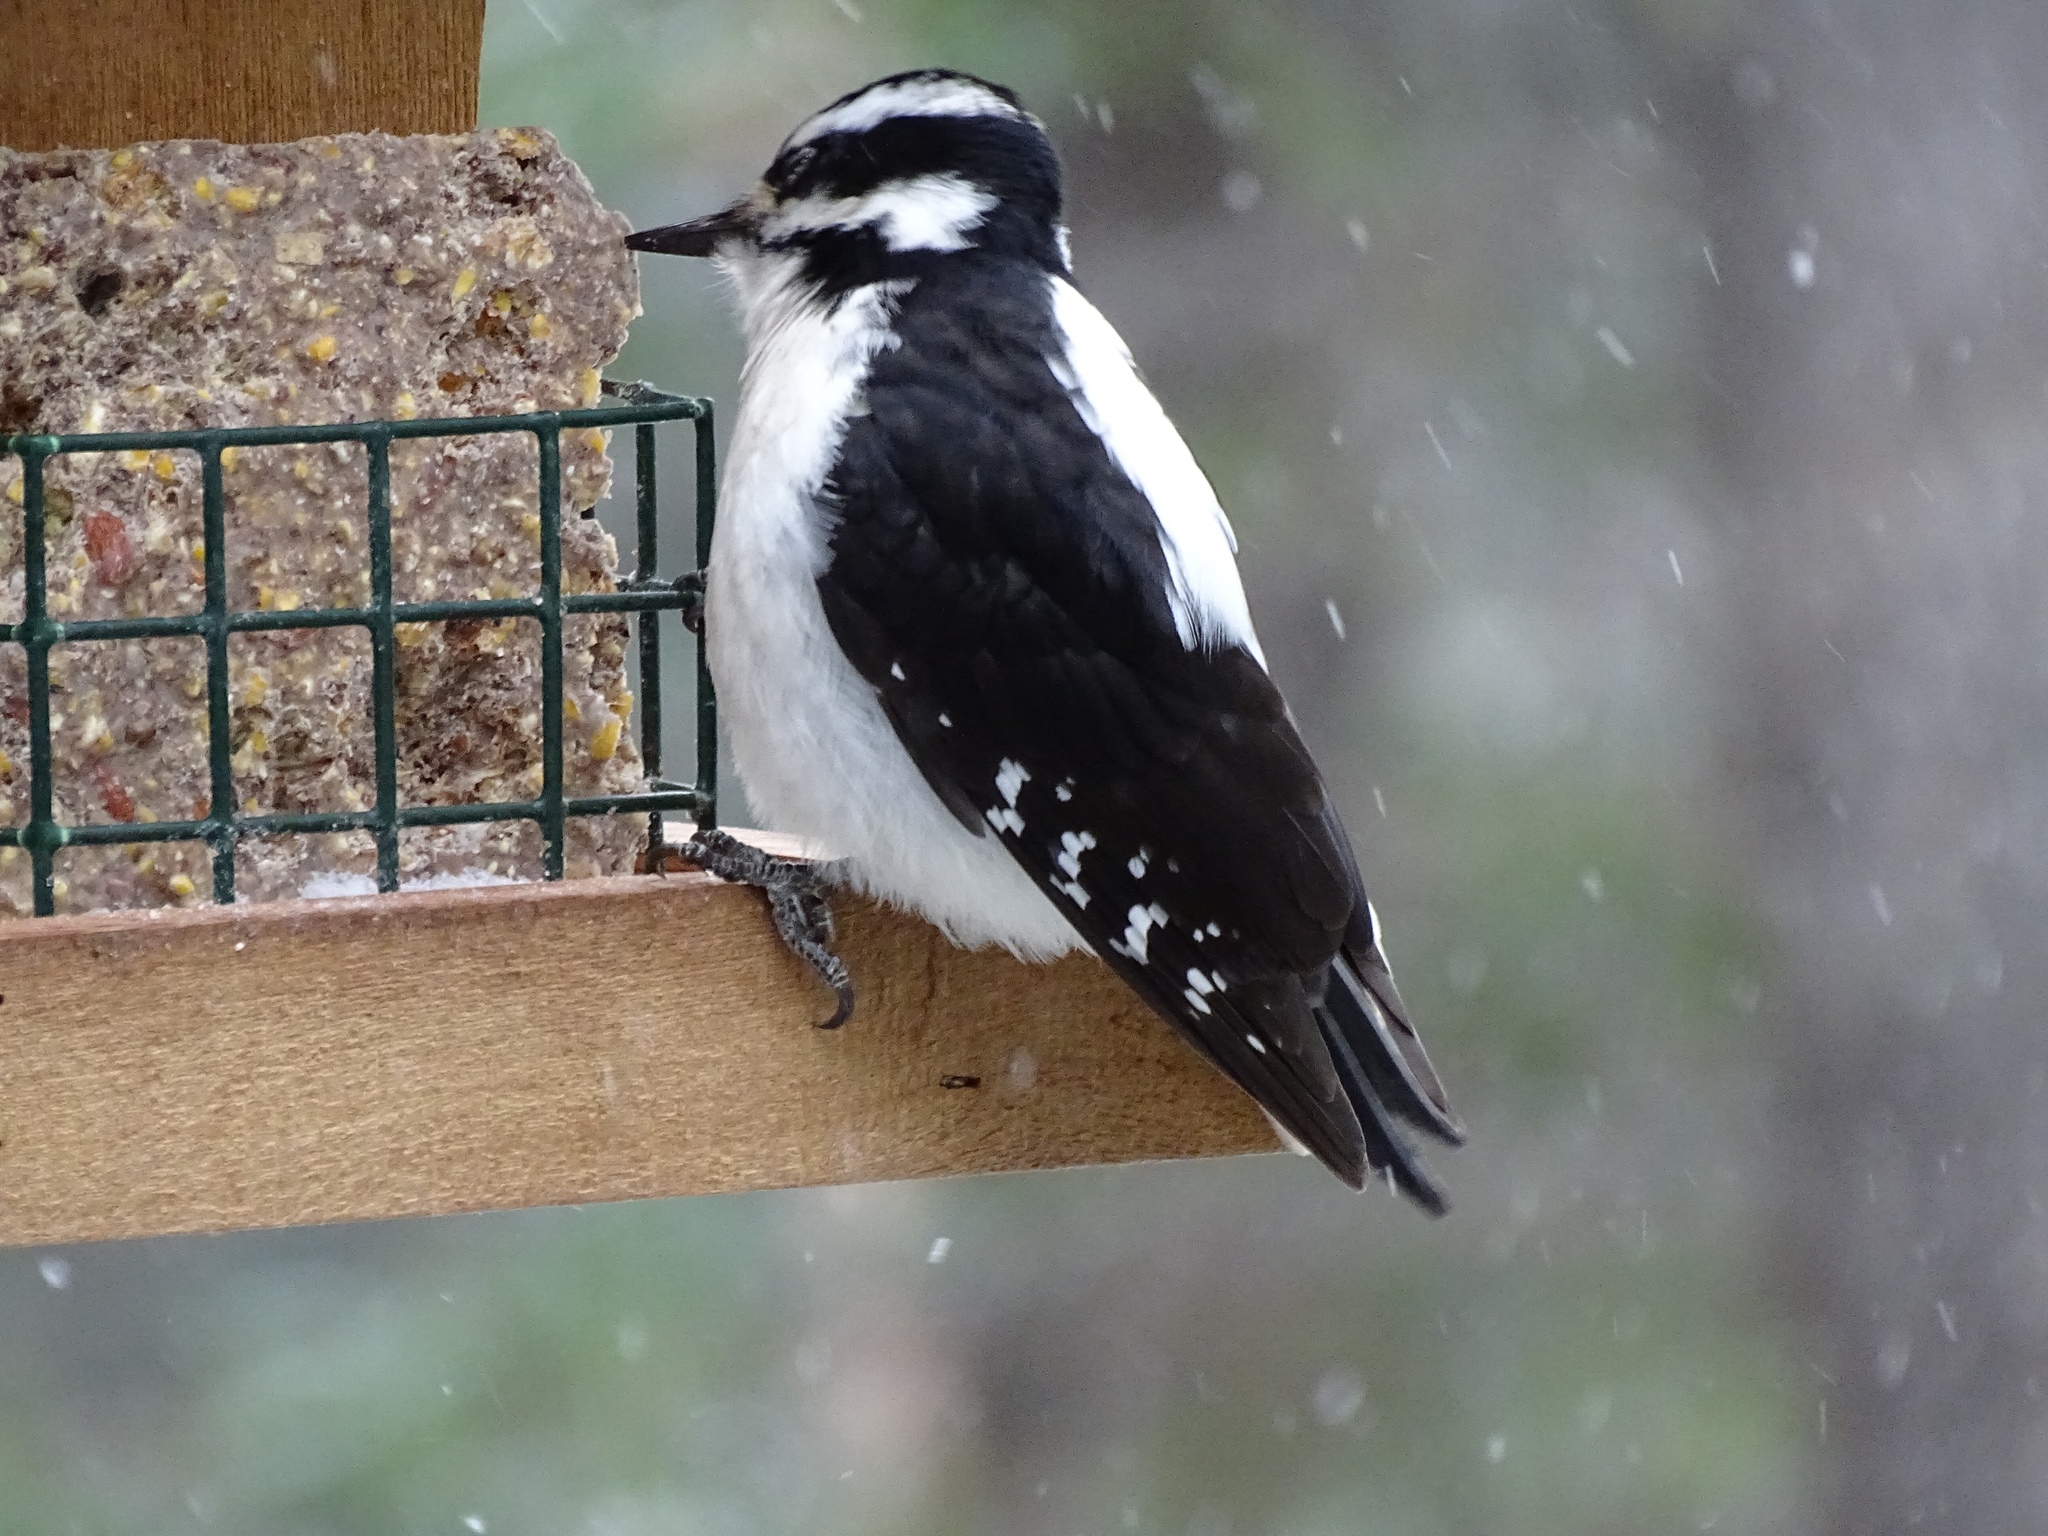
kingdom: Animalia
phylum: Chordata
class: Aves
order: Piciformes
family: Picidae
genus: Leuconotopicus
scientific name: Leuconotopicus villosus
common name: Hairy woodpecker
